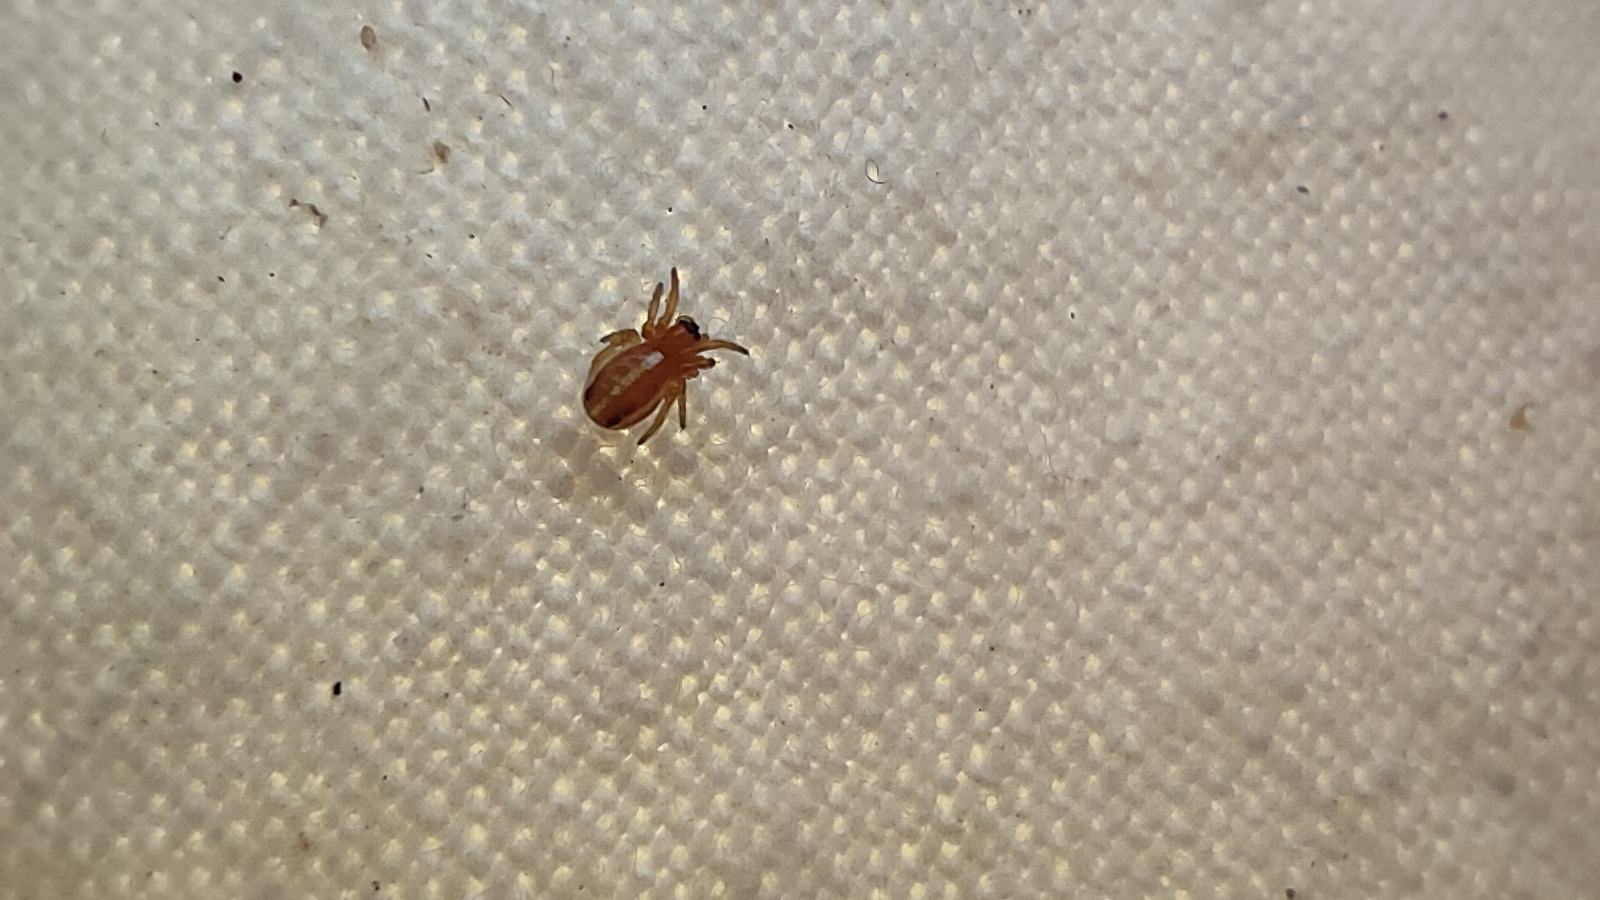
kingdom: Animalia
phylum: Arthropoda
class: Arachnida
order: Araneae
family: Araneidae
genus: Hypsosinga
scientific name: Hypsosinga sanguinea
